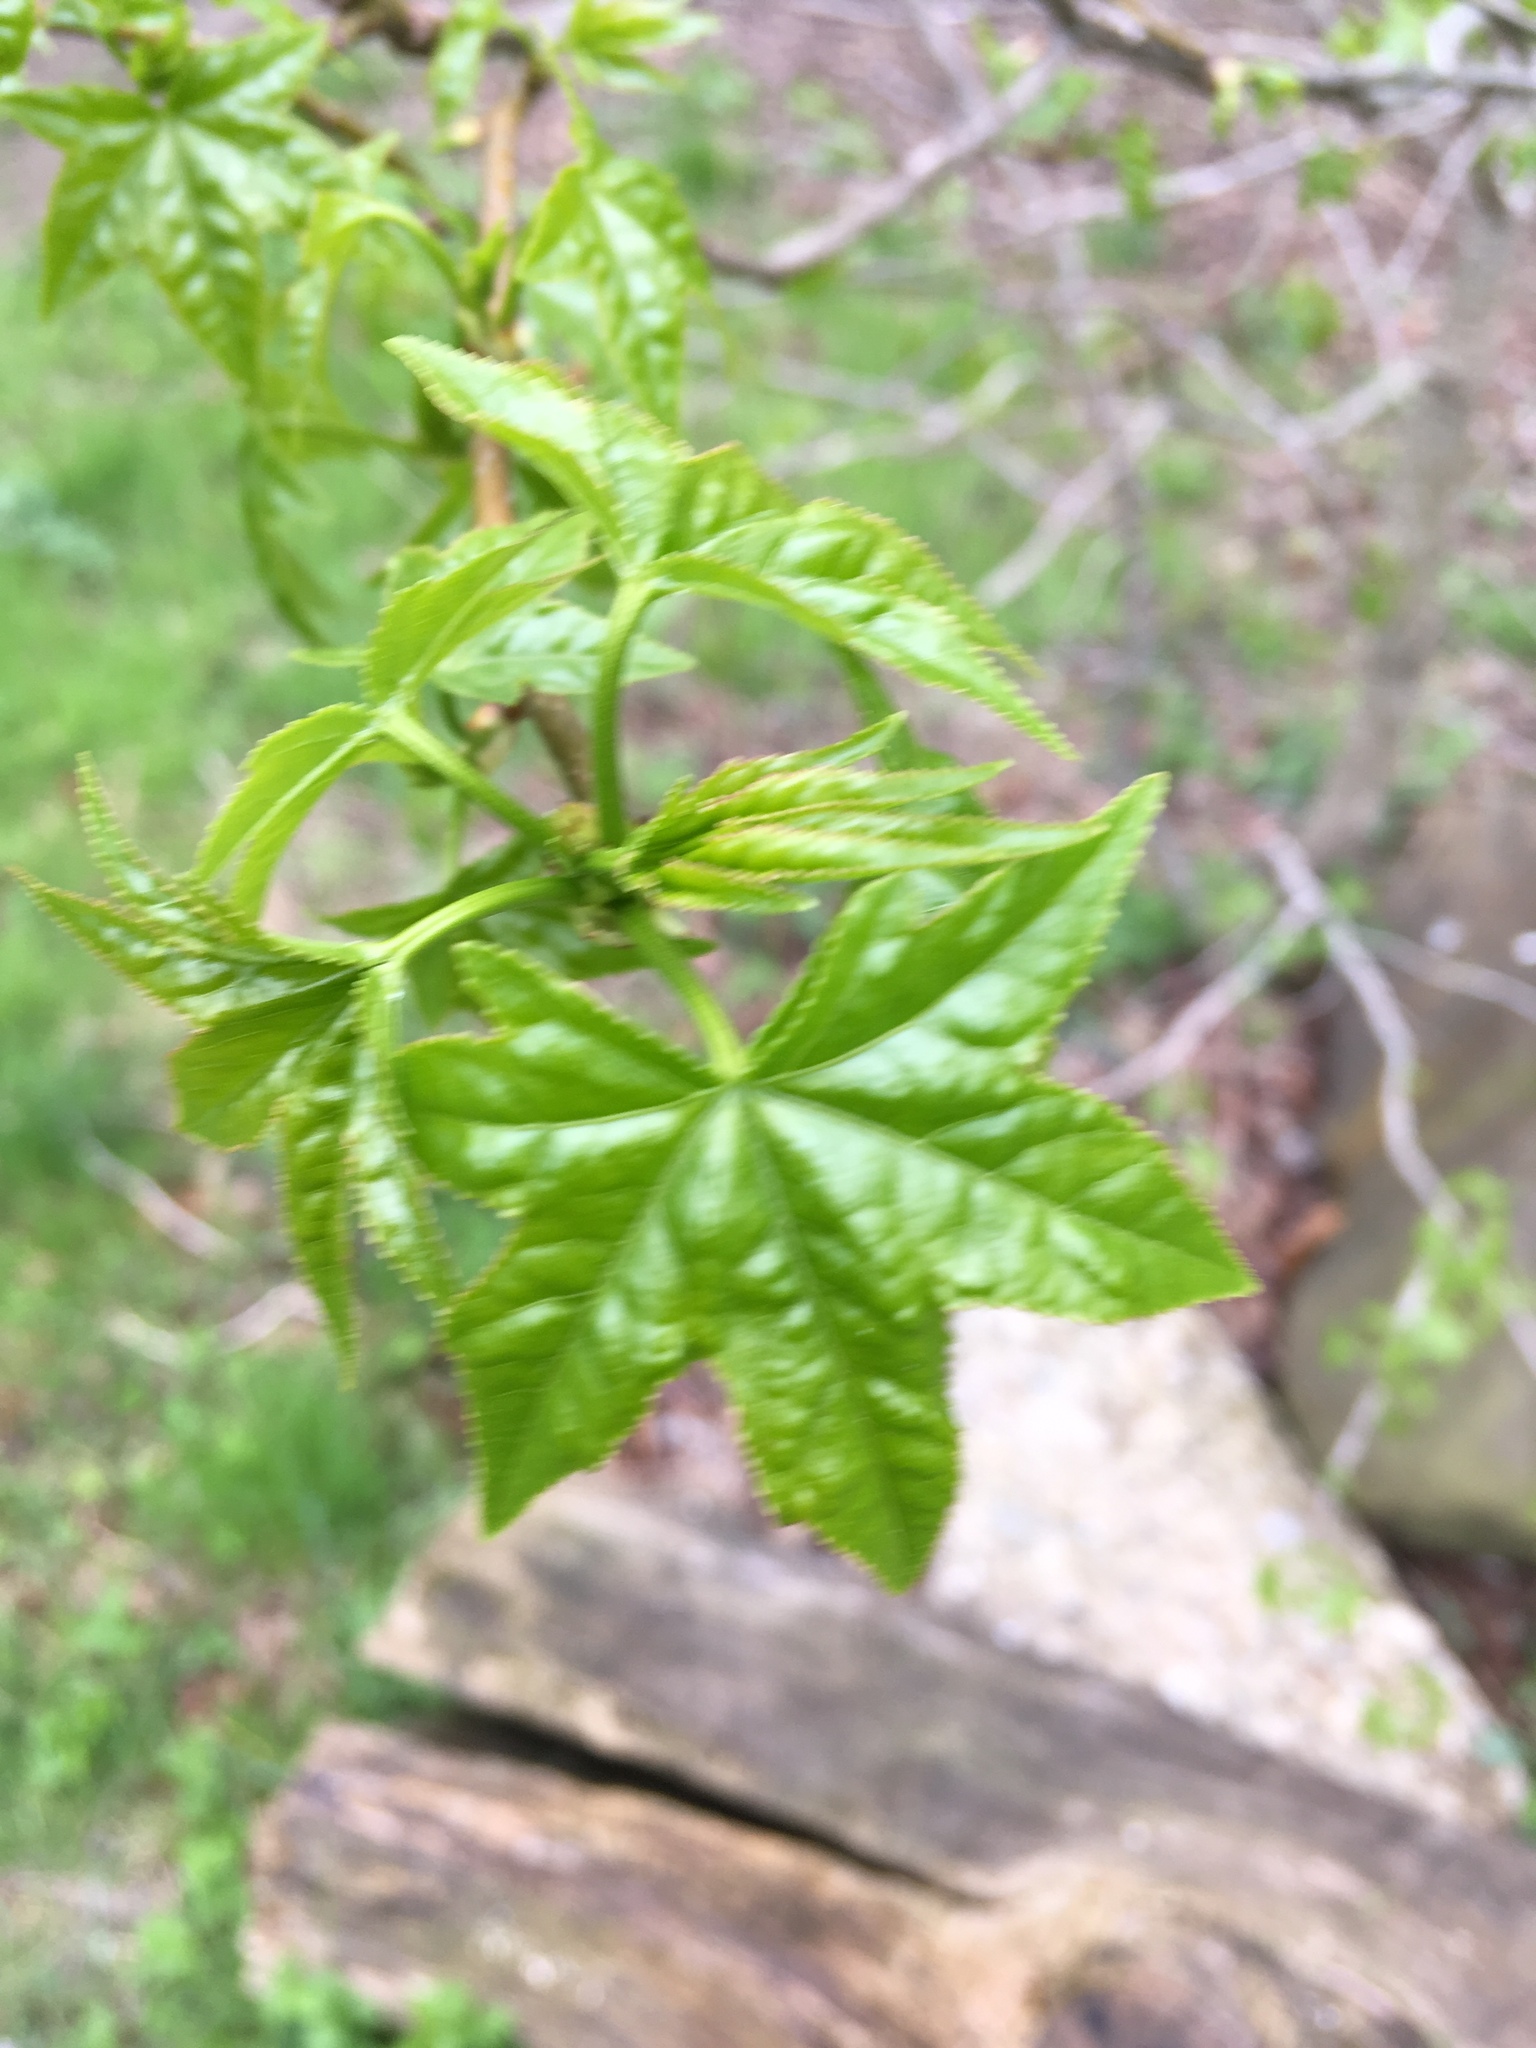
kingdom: Plantae
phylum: Tracheophyta
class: Magnoliopsida
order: Saxifragales
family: Altingiaceae
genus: Liquidambar
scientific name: Liquidambar styraciflua
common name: Sweet gum
